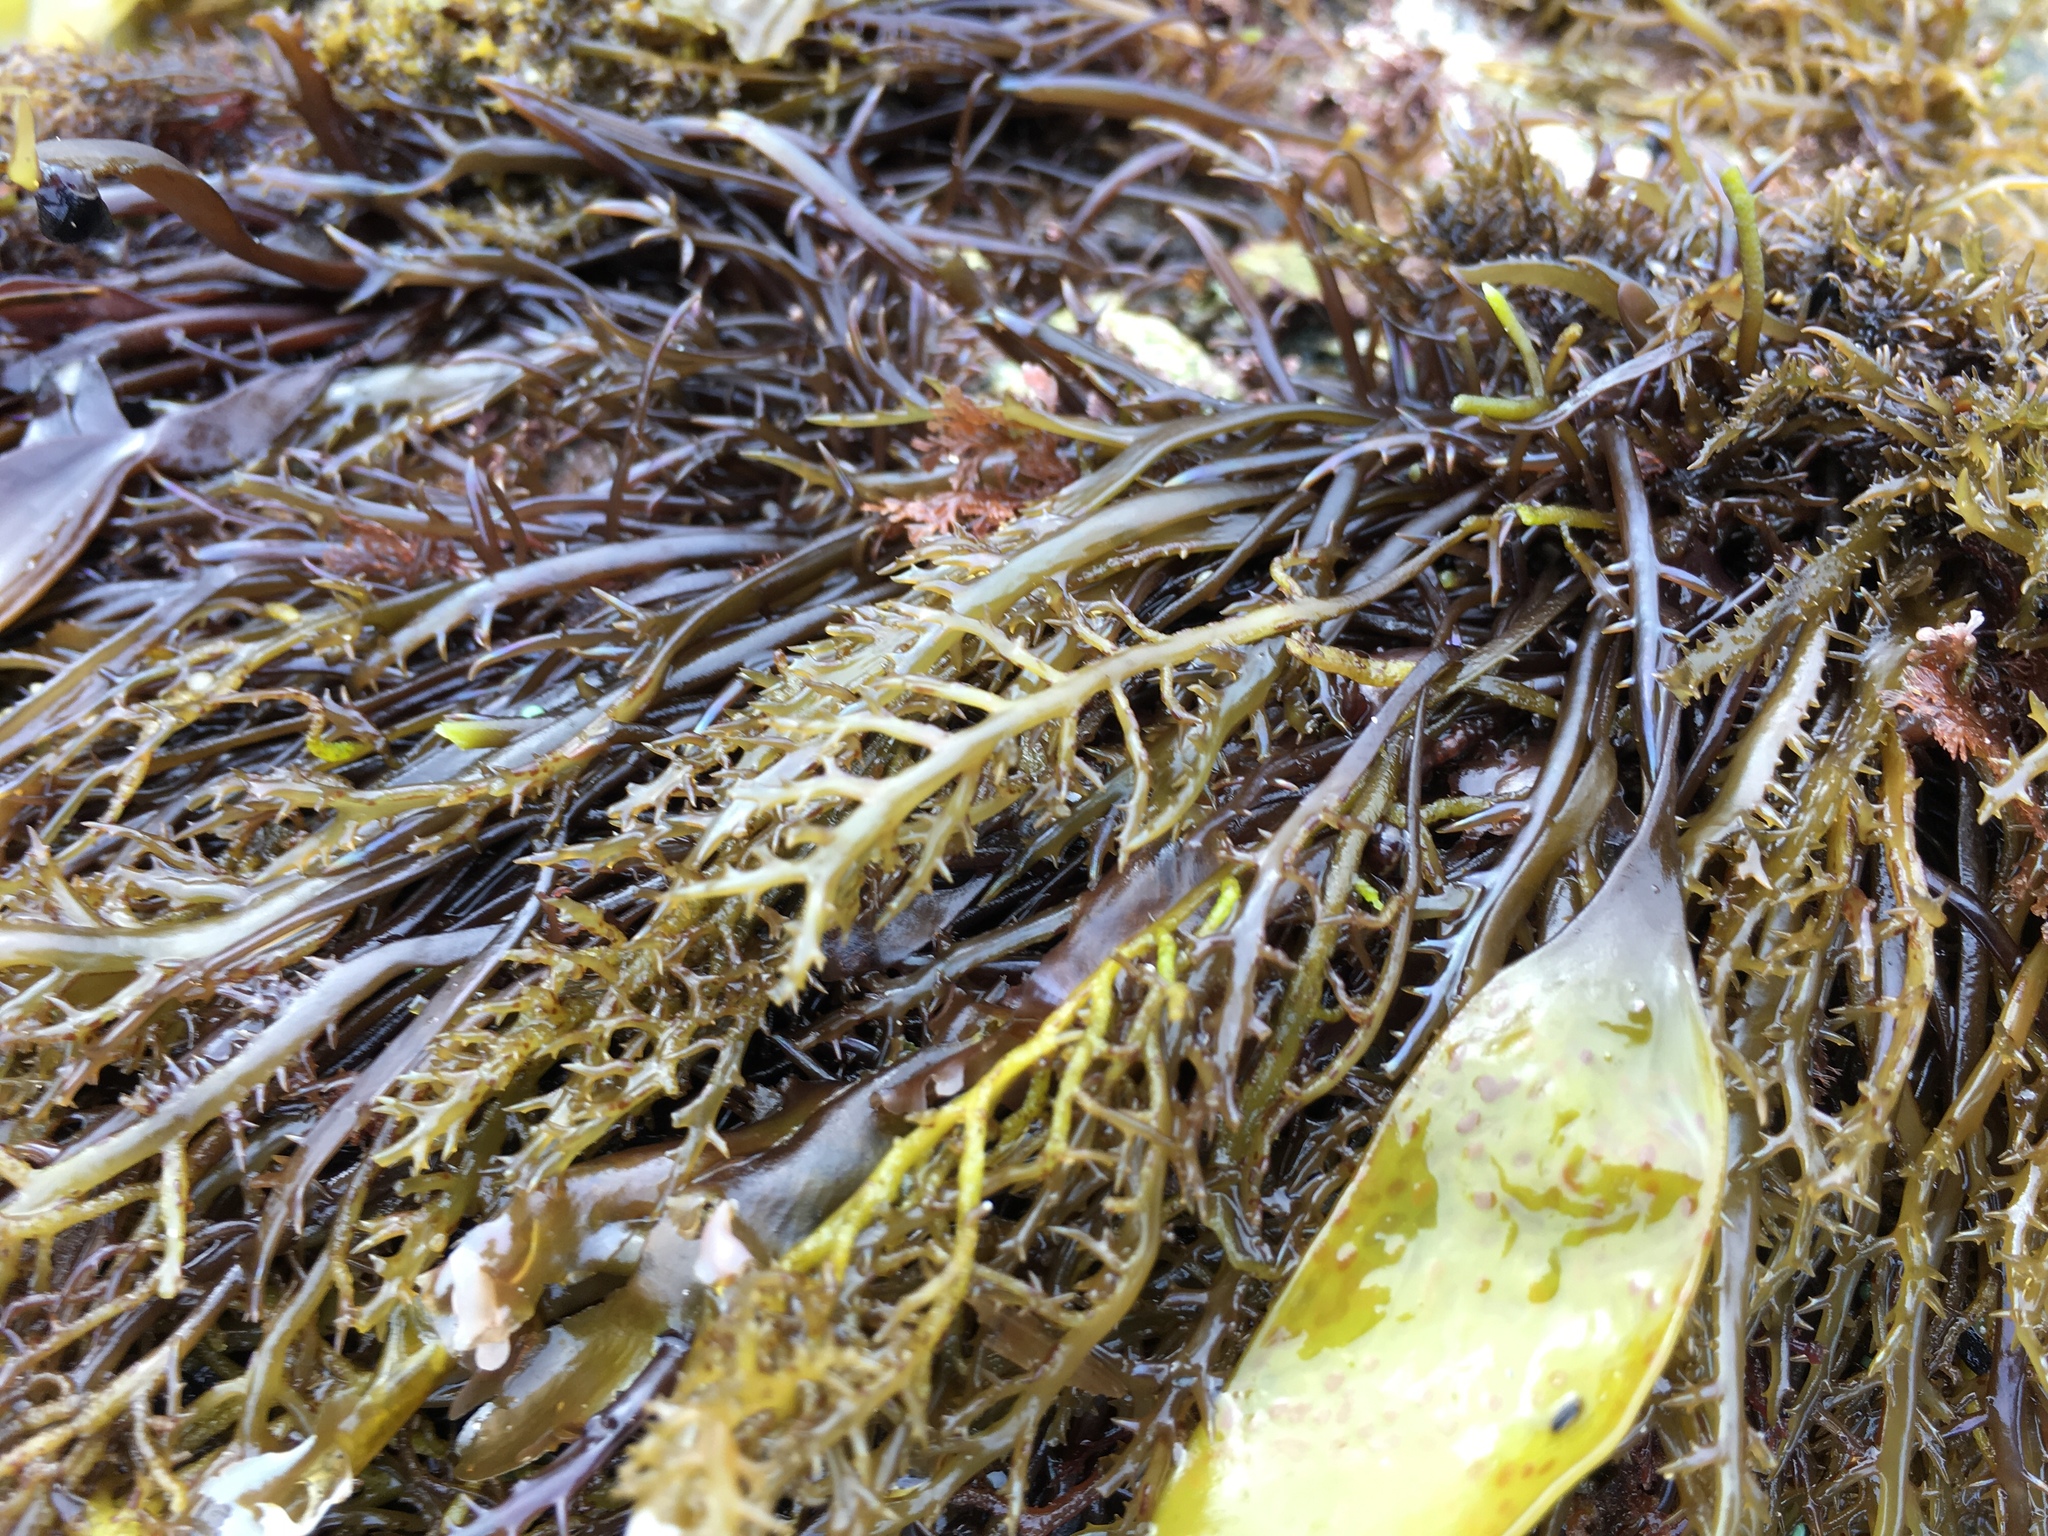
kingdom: Plantae
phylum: Rhodophyta
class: Florideophyceae
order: Gigartinales
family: Gigartinaceae
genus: Chondracanthus
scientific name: Chondracanthus canaliculatus
